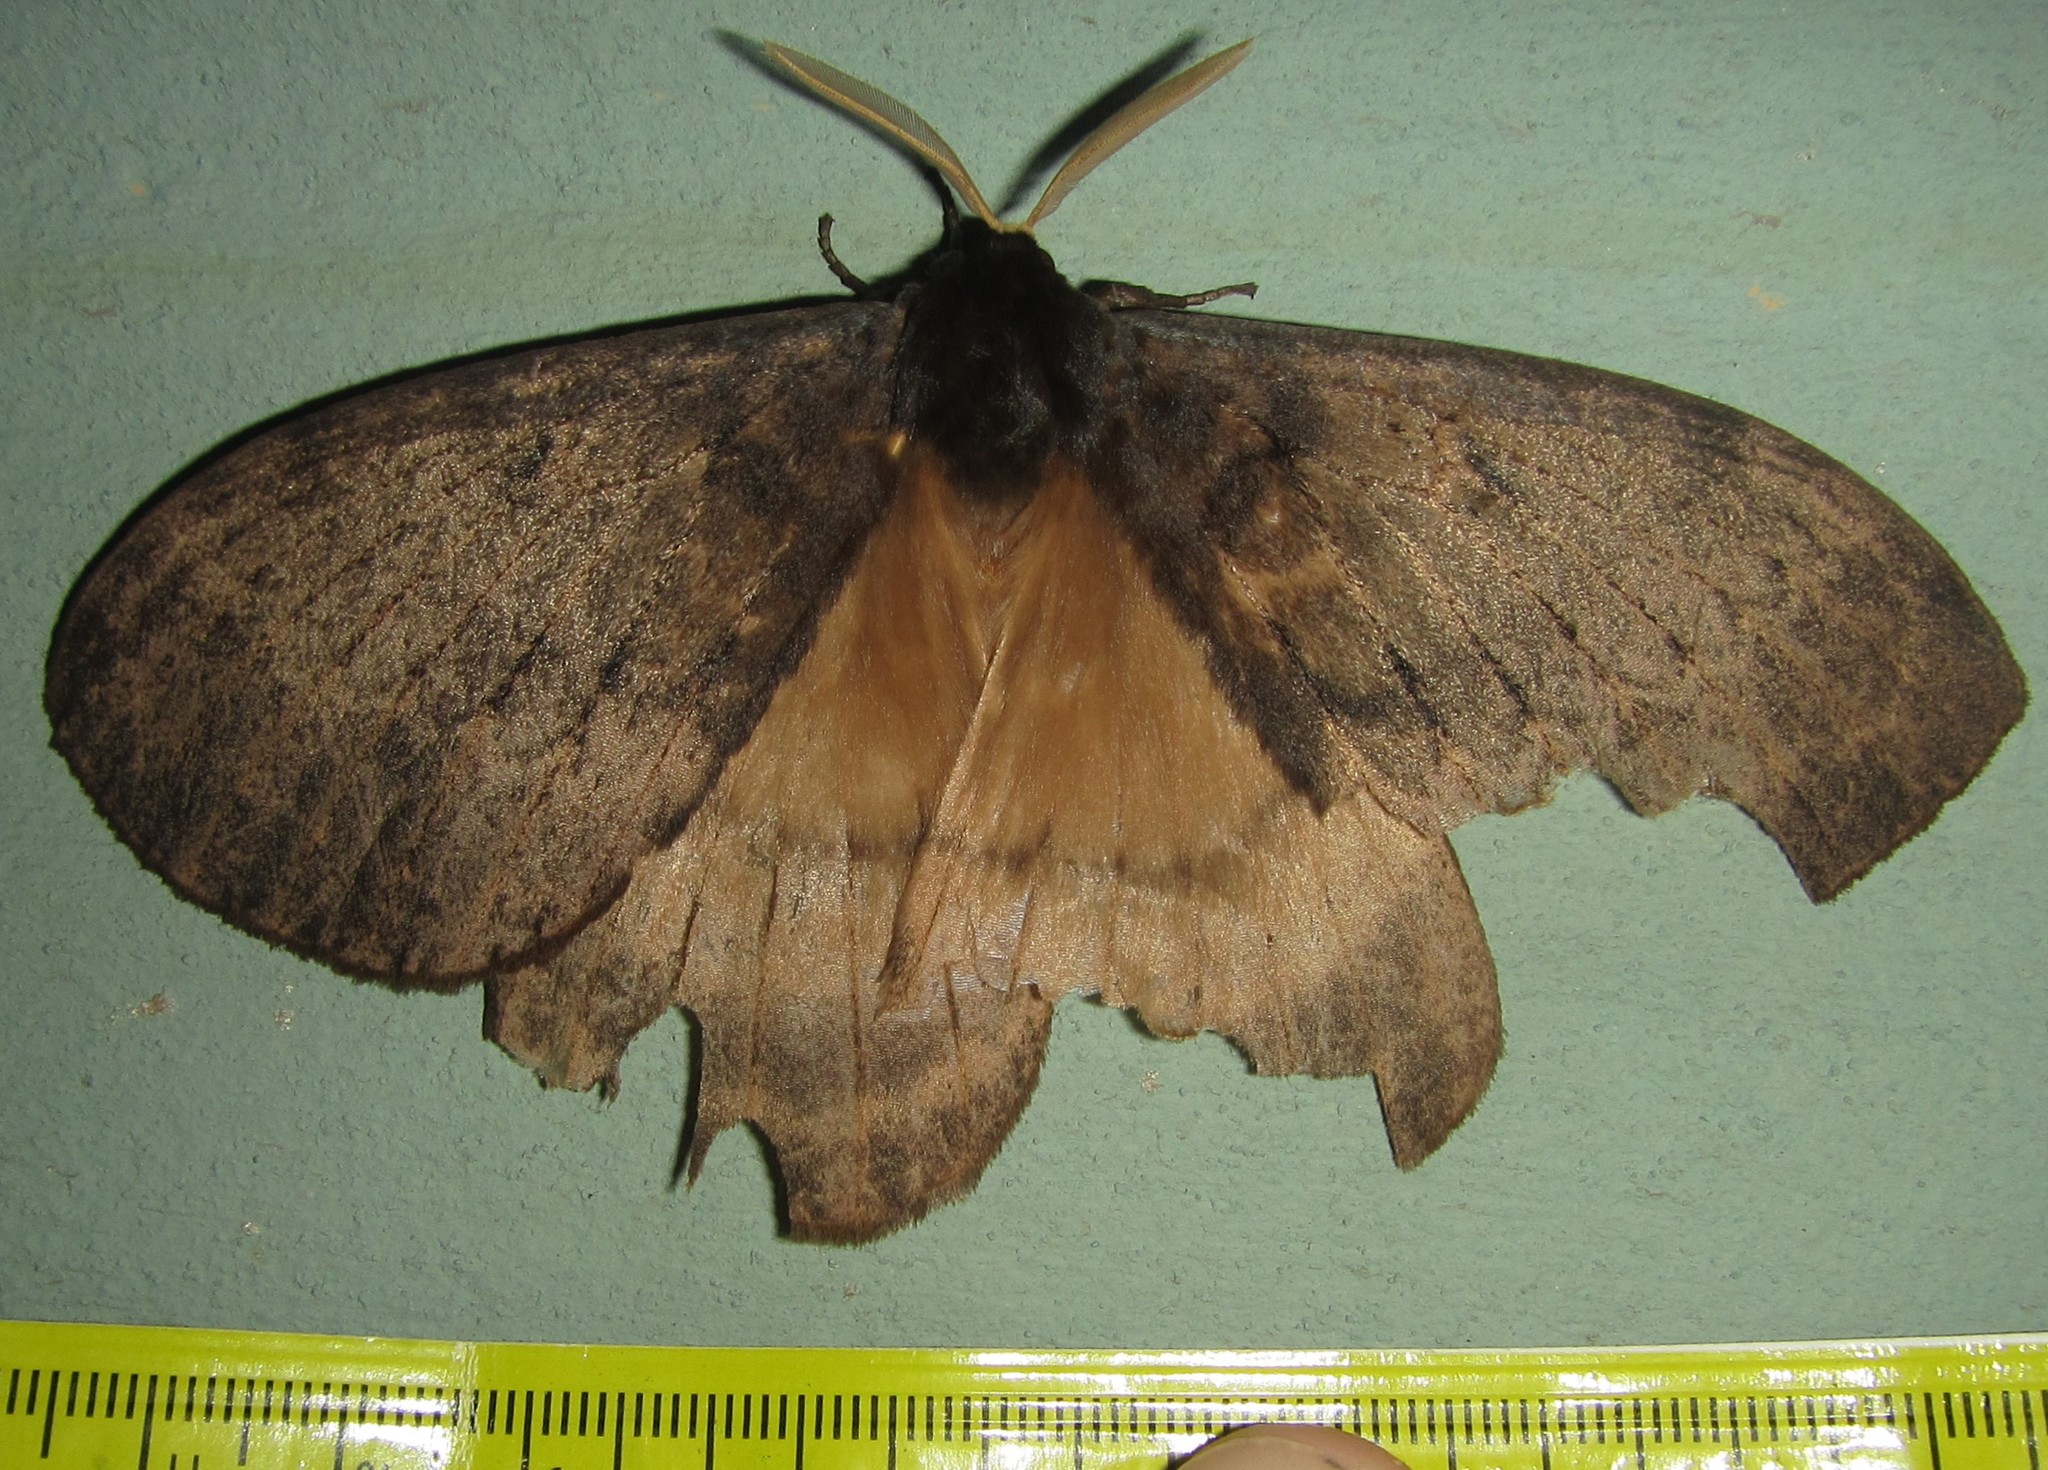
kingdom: Animalia
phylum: Arthropoda
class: Insecta
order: Lepidoptera
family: Eupterotidae
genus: Jana
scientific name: Jana tantalus
